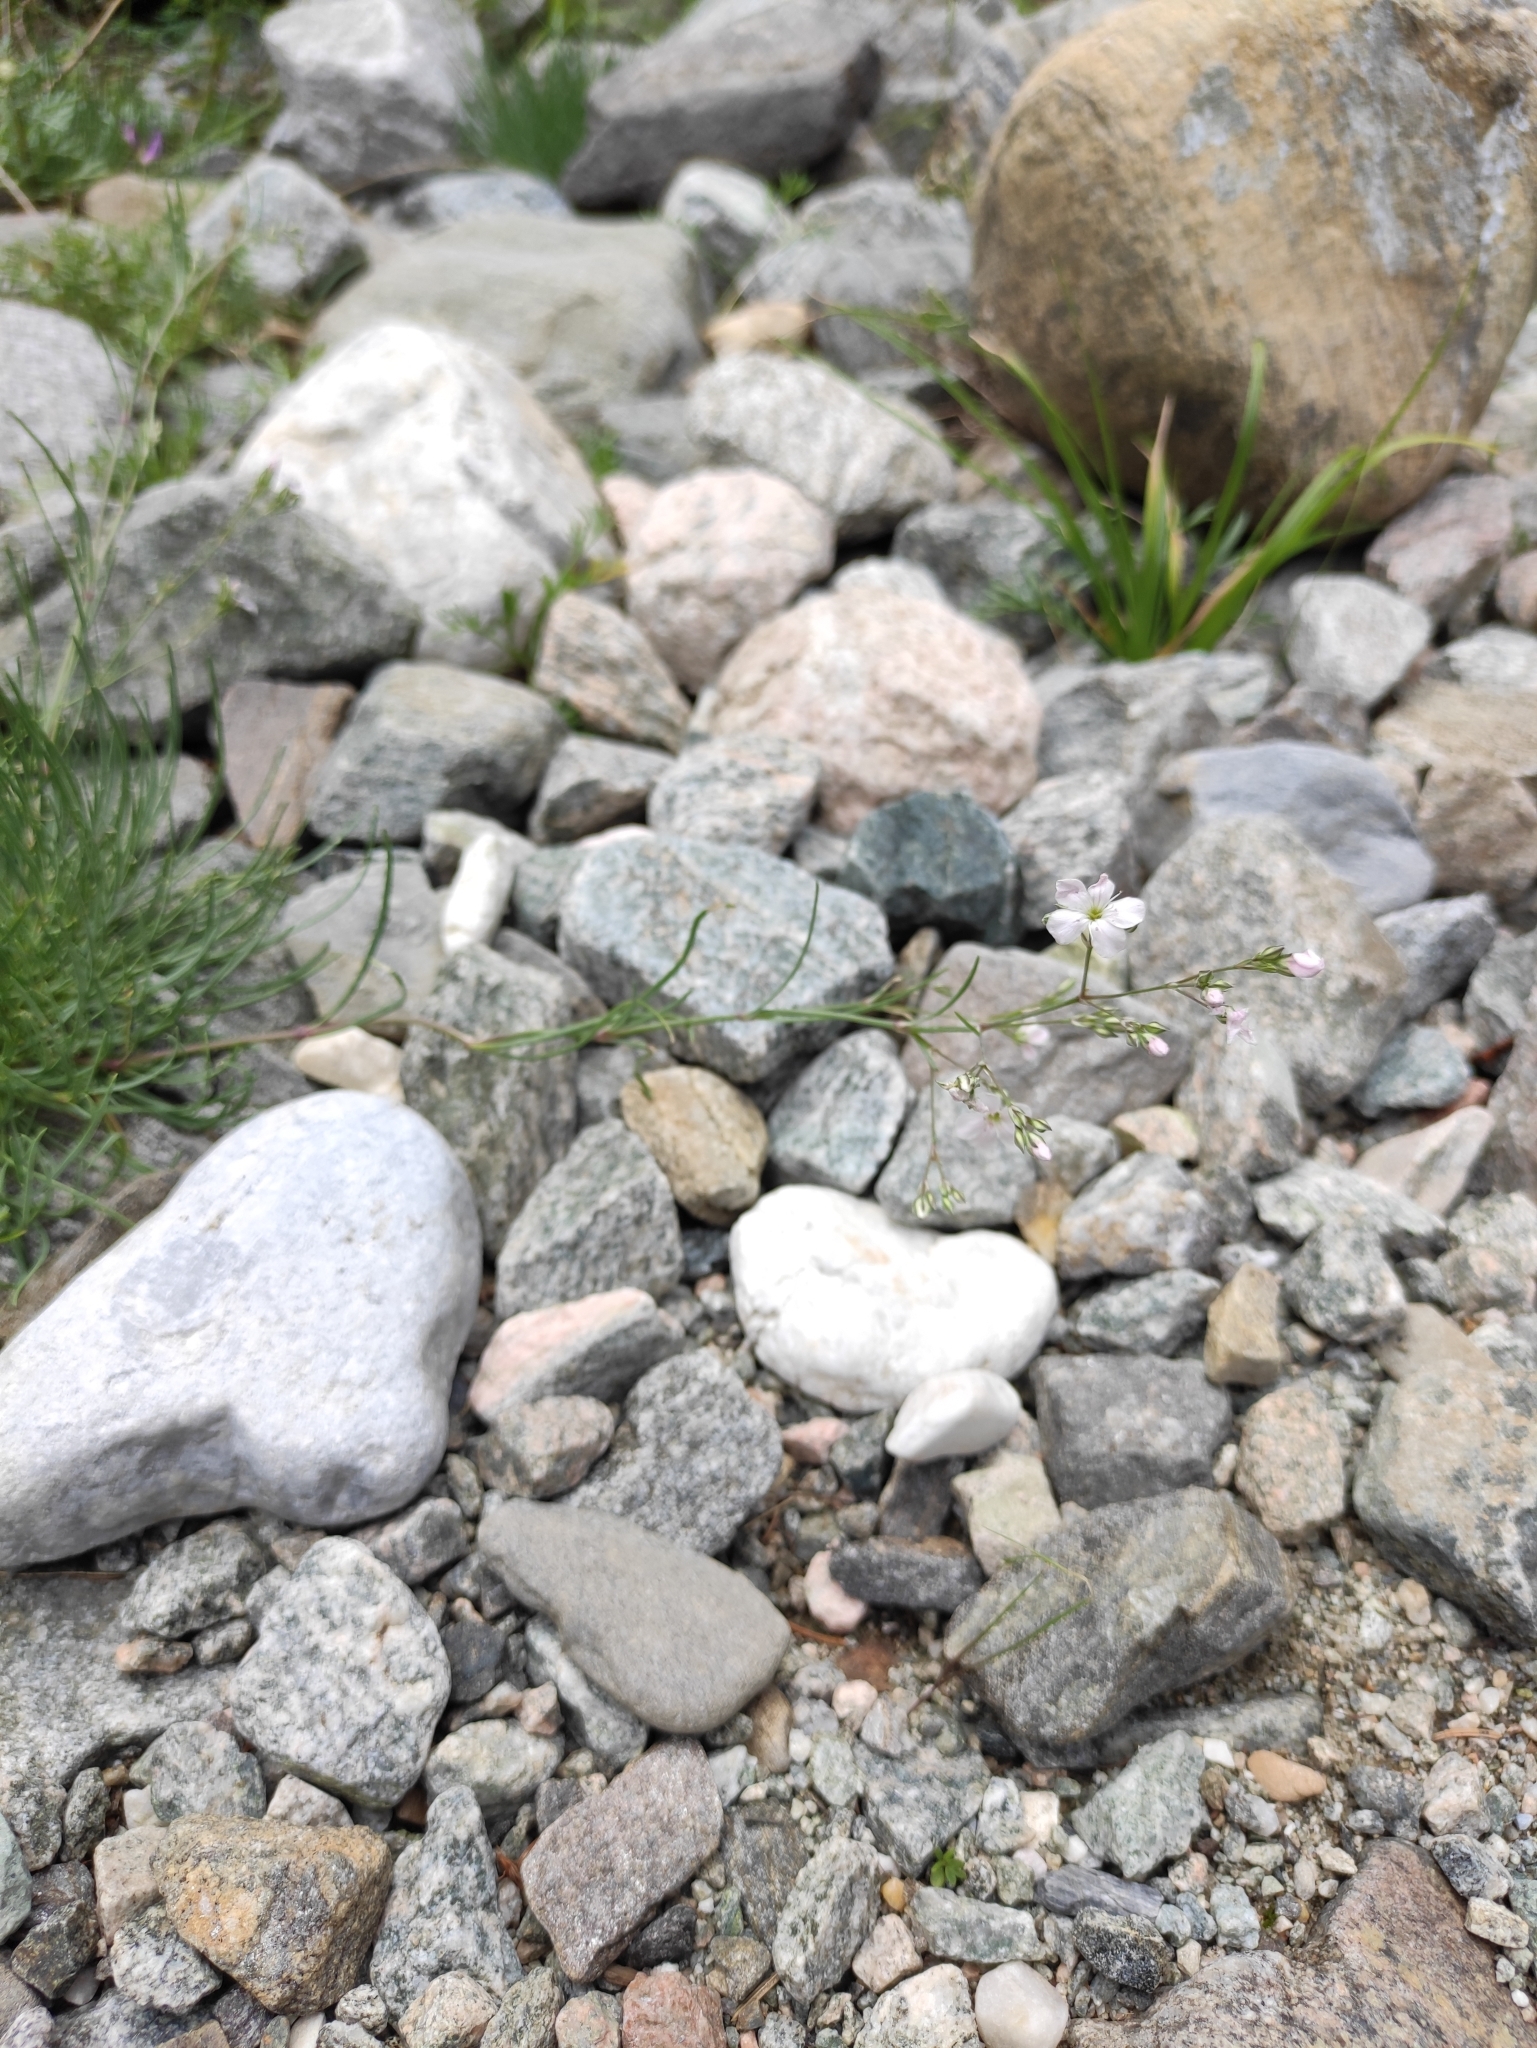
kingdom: Plantae
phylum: Tracheophyta
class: Magnoliopsida
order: Caryophyllales
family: Caryophyllaceae
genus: Gypsophila
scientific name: Gypsophila patrinii
